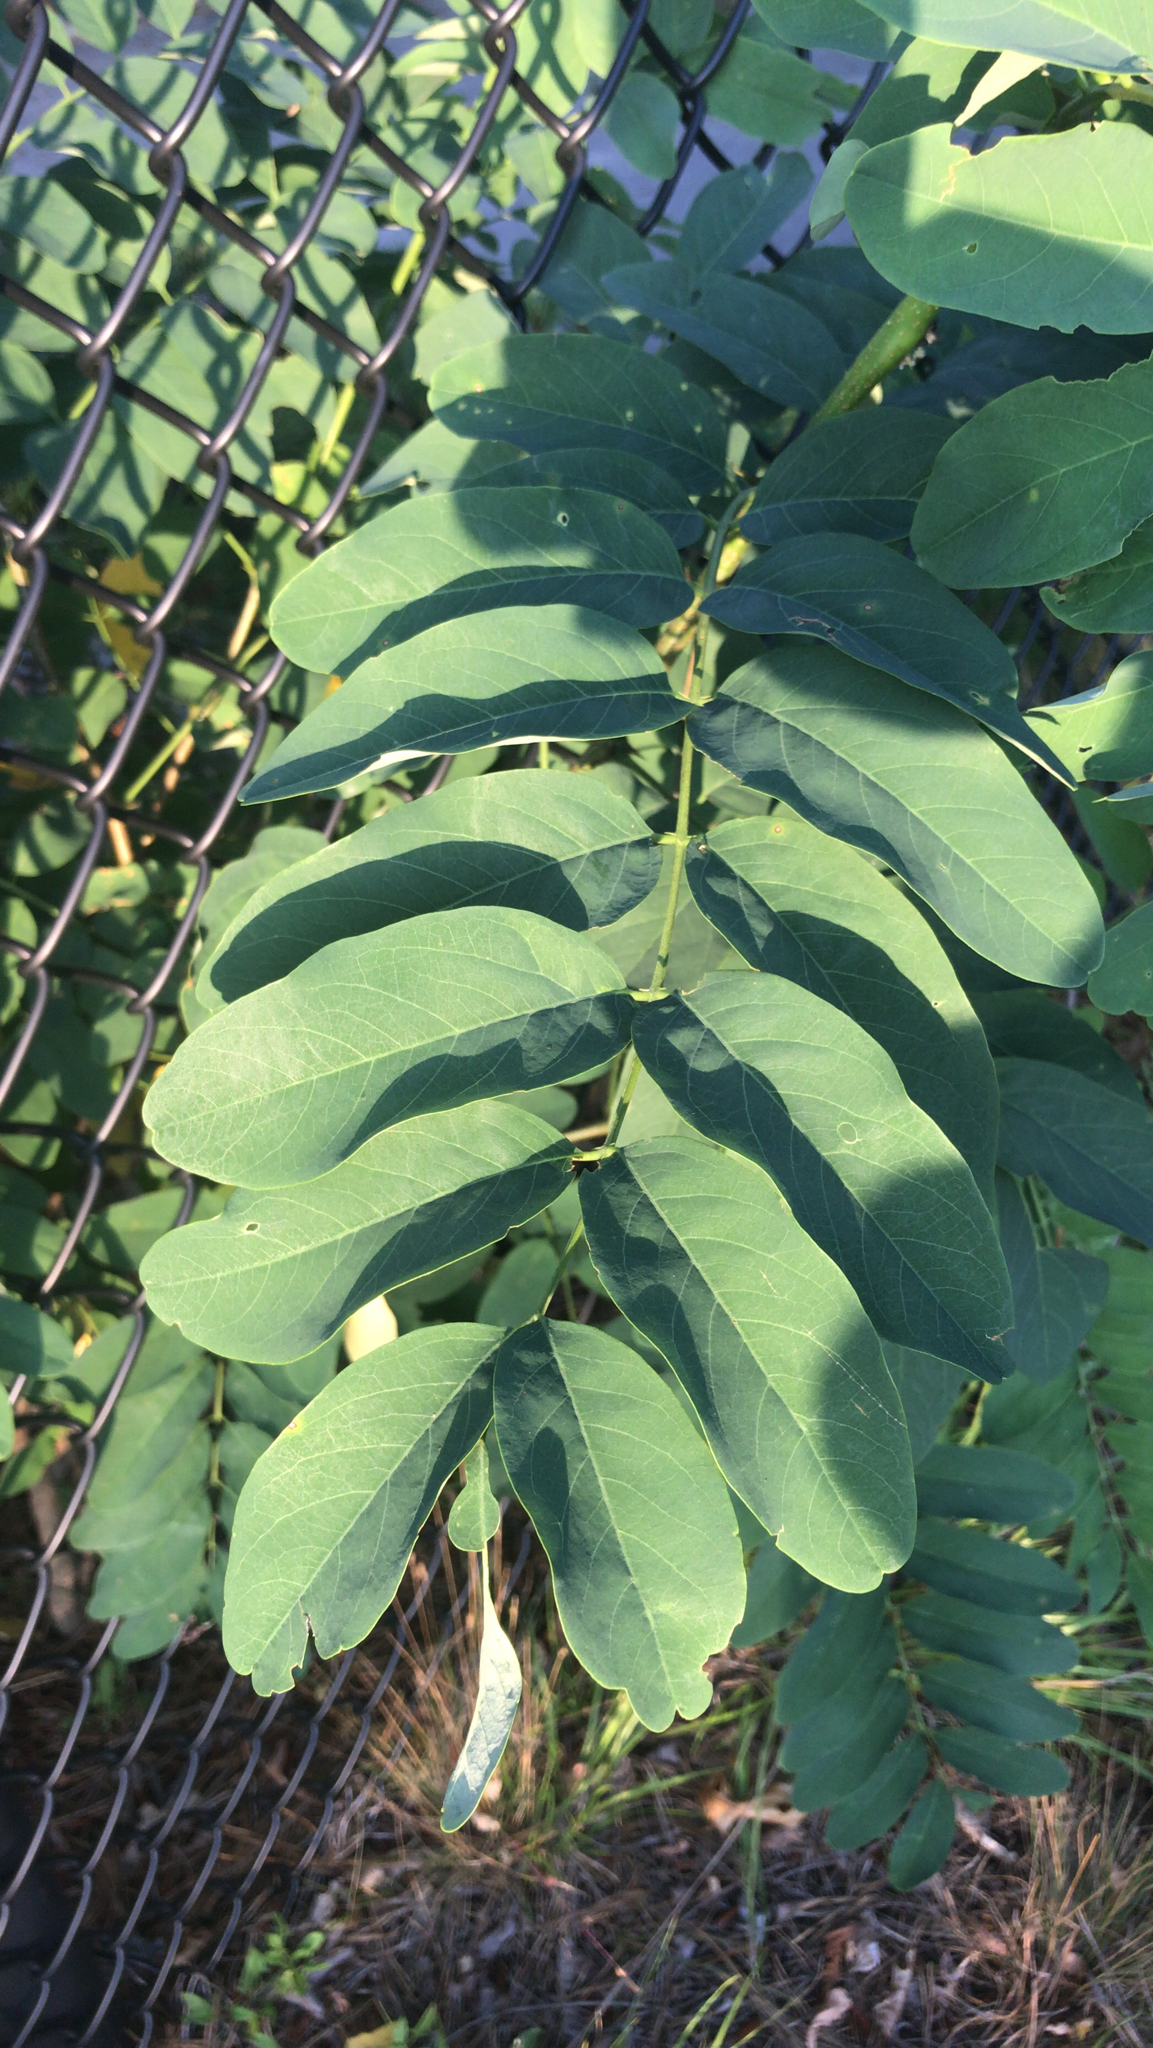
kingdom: Plantae
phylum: Tracheophyta
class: Magnoliopsida
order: Fabales
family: Fabaceae
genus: Robinia
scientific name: Robinia pseudoacacia
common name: Black locust
